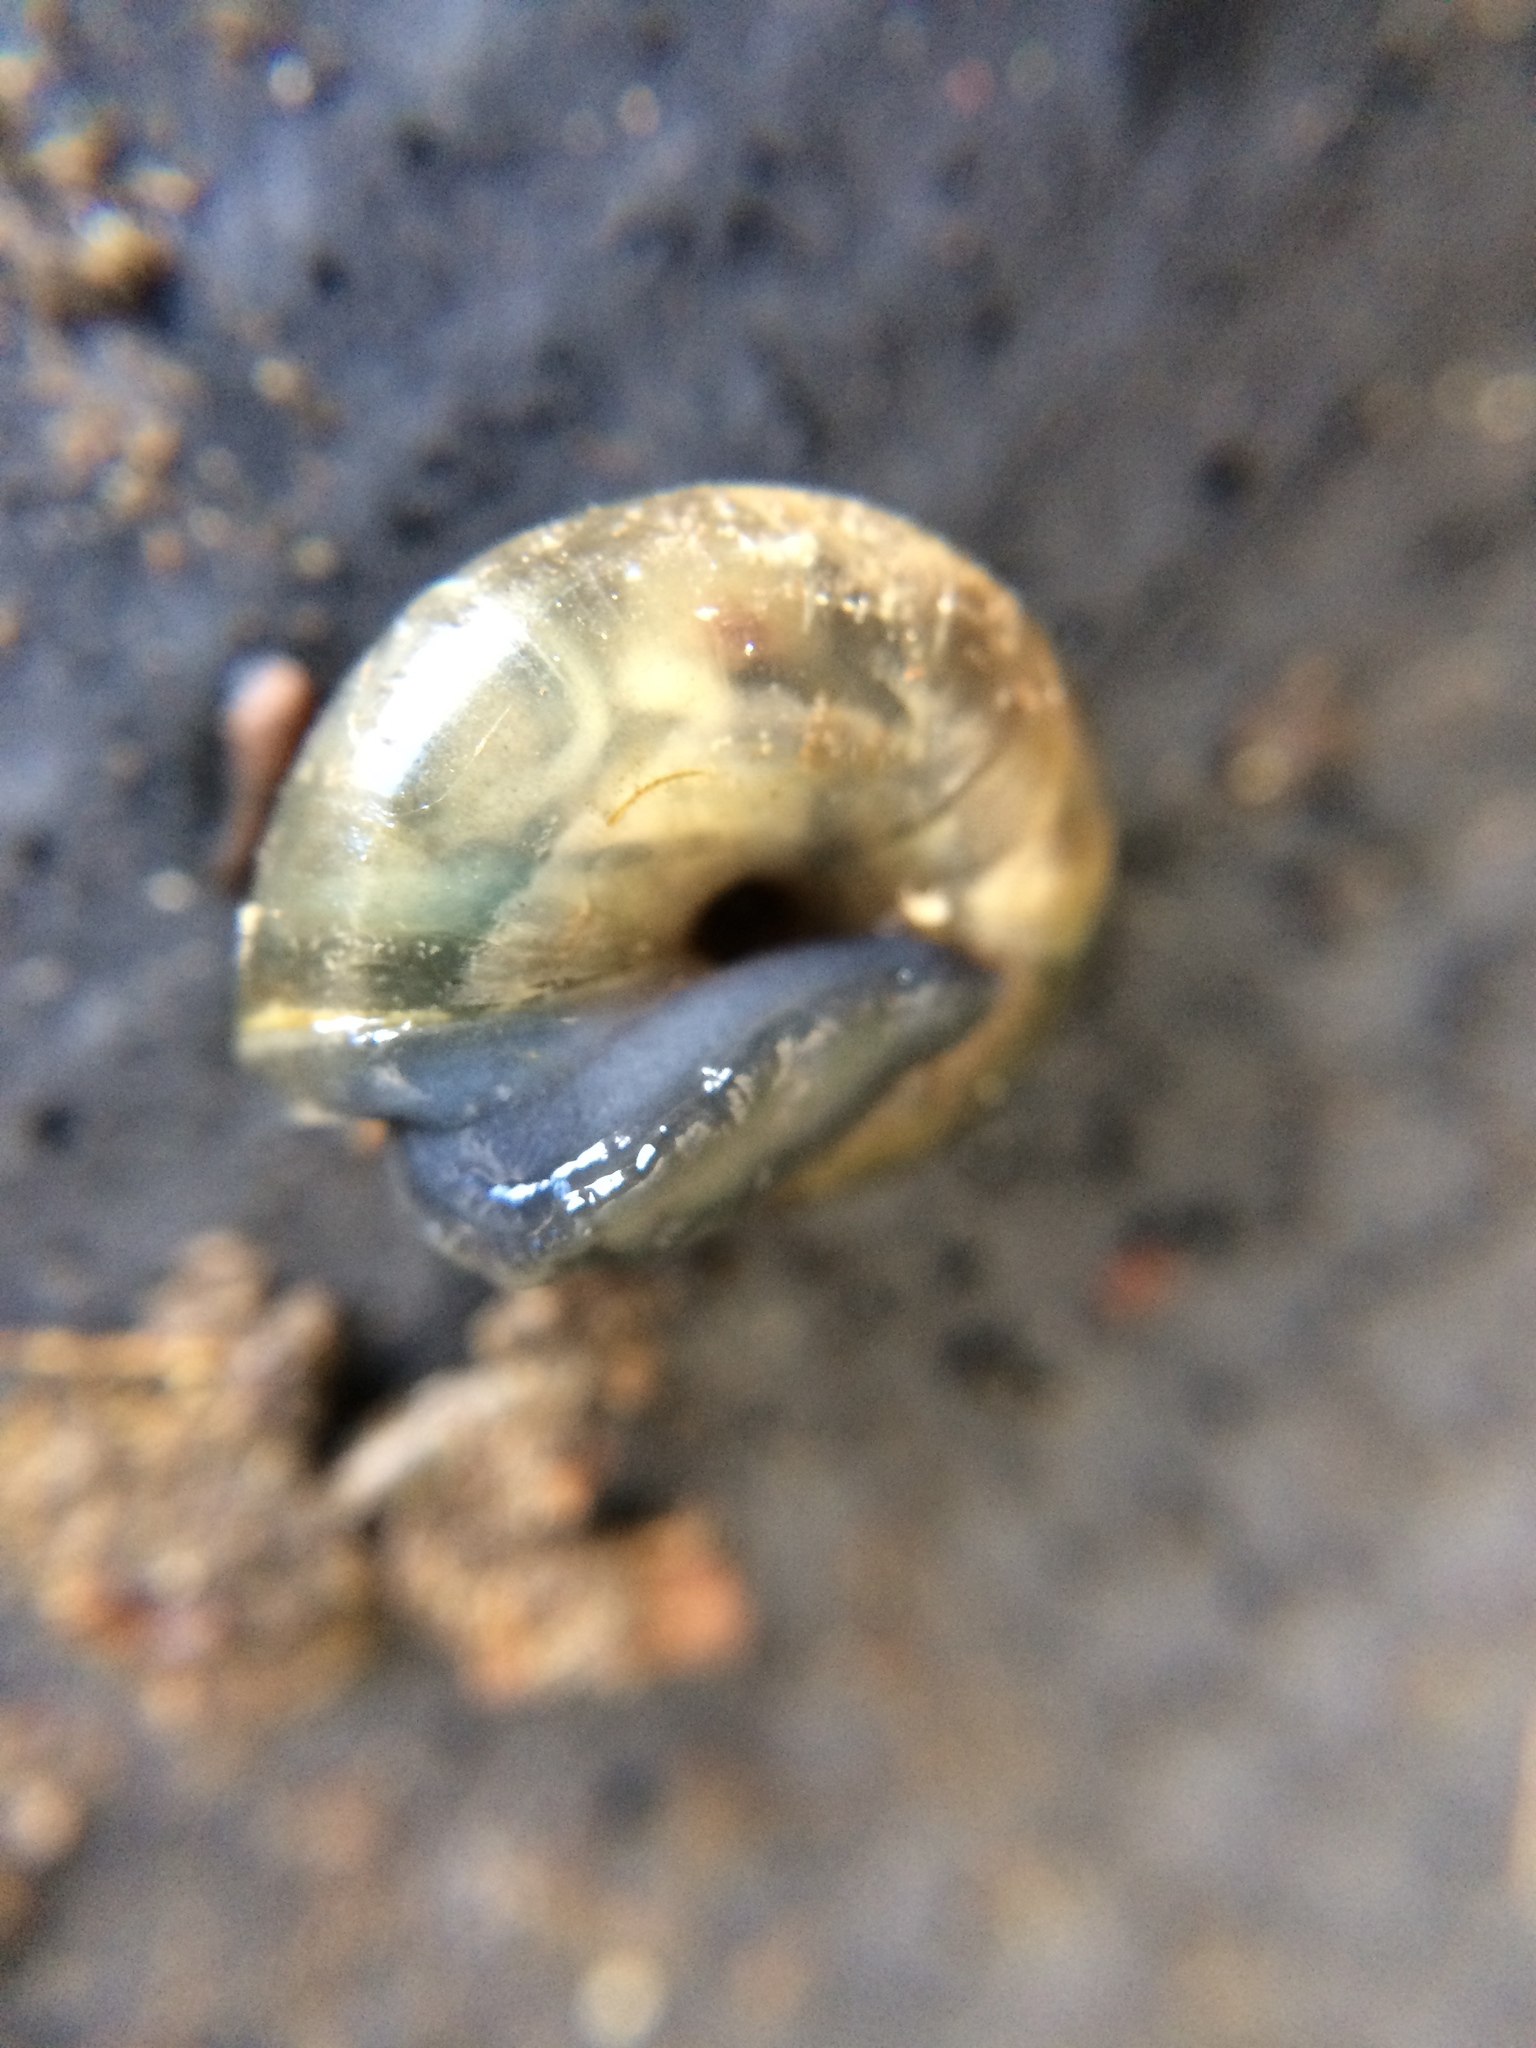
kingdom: Animalia
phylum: Arthropoda
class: Arachnida
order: Trombidiformes
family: Ereynetidae
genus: Riccardoella
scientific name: Riccardoella limacum
